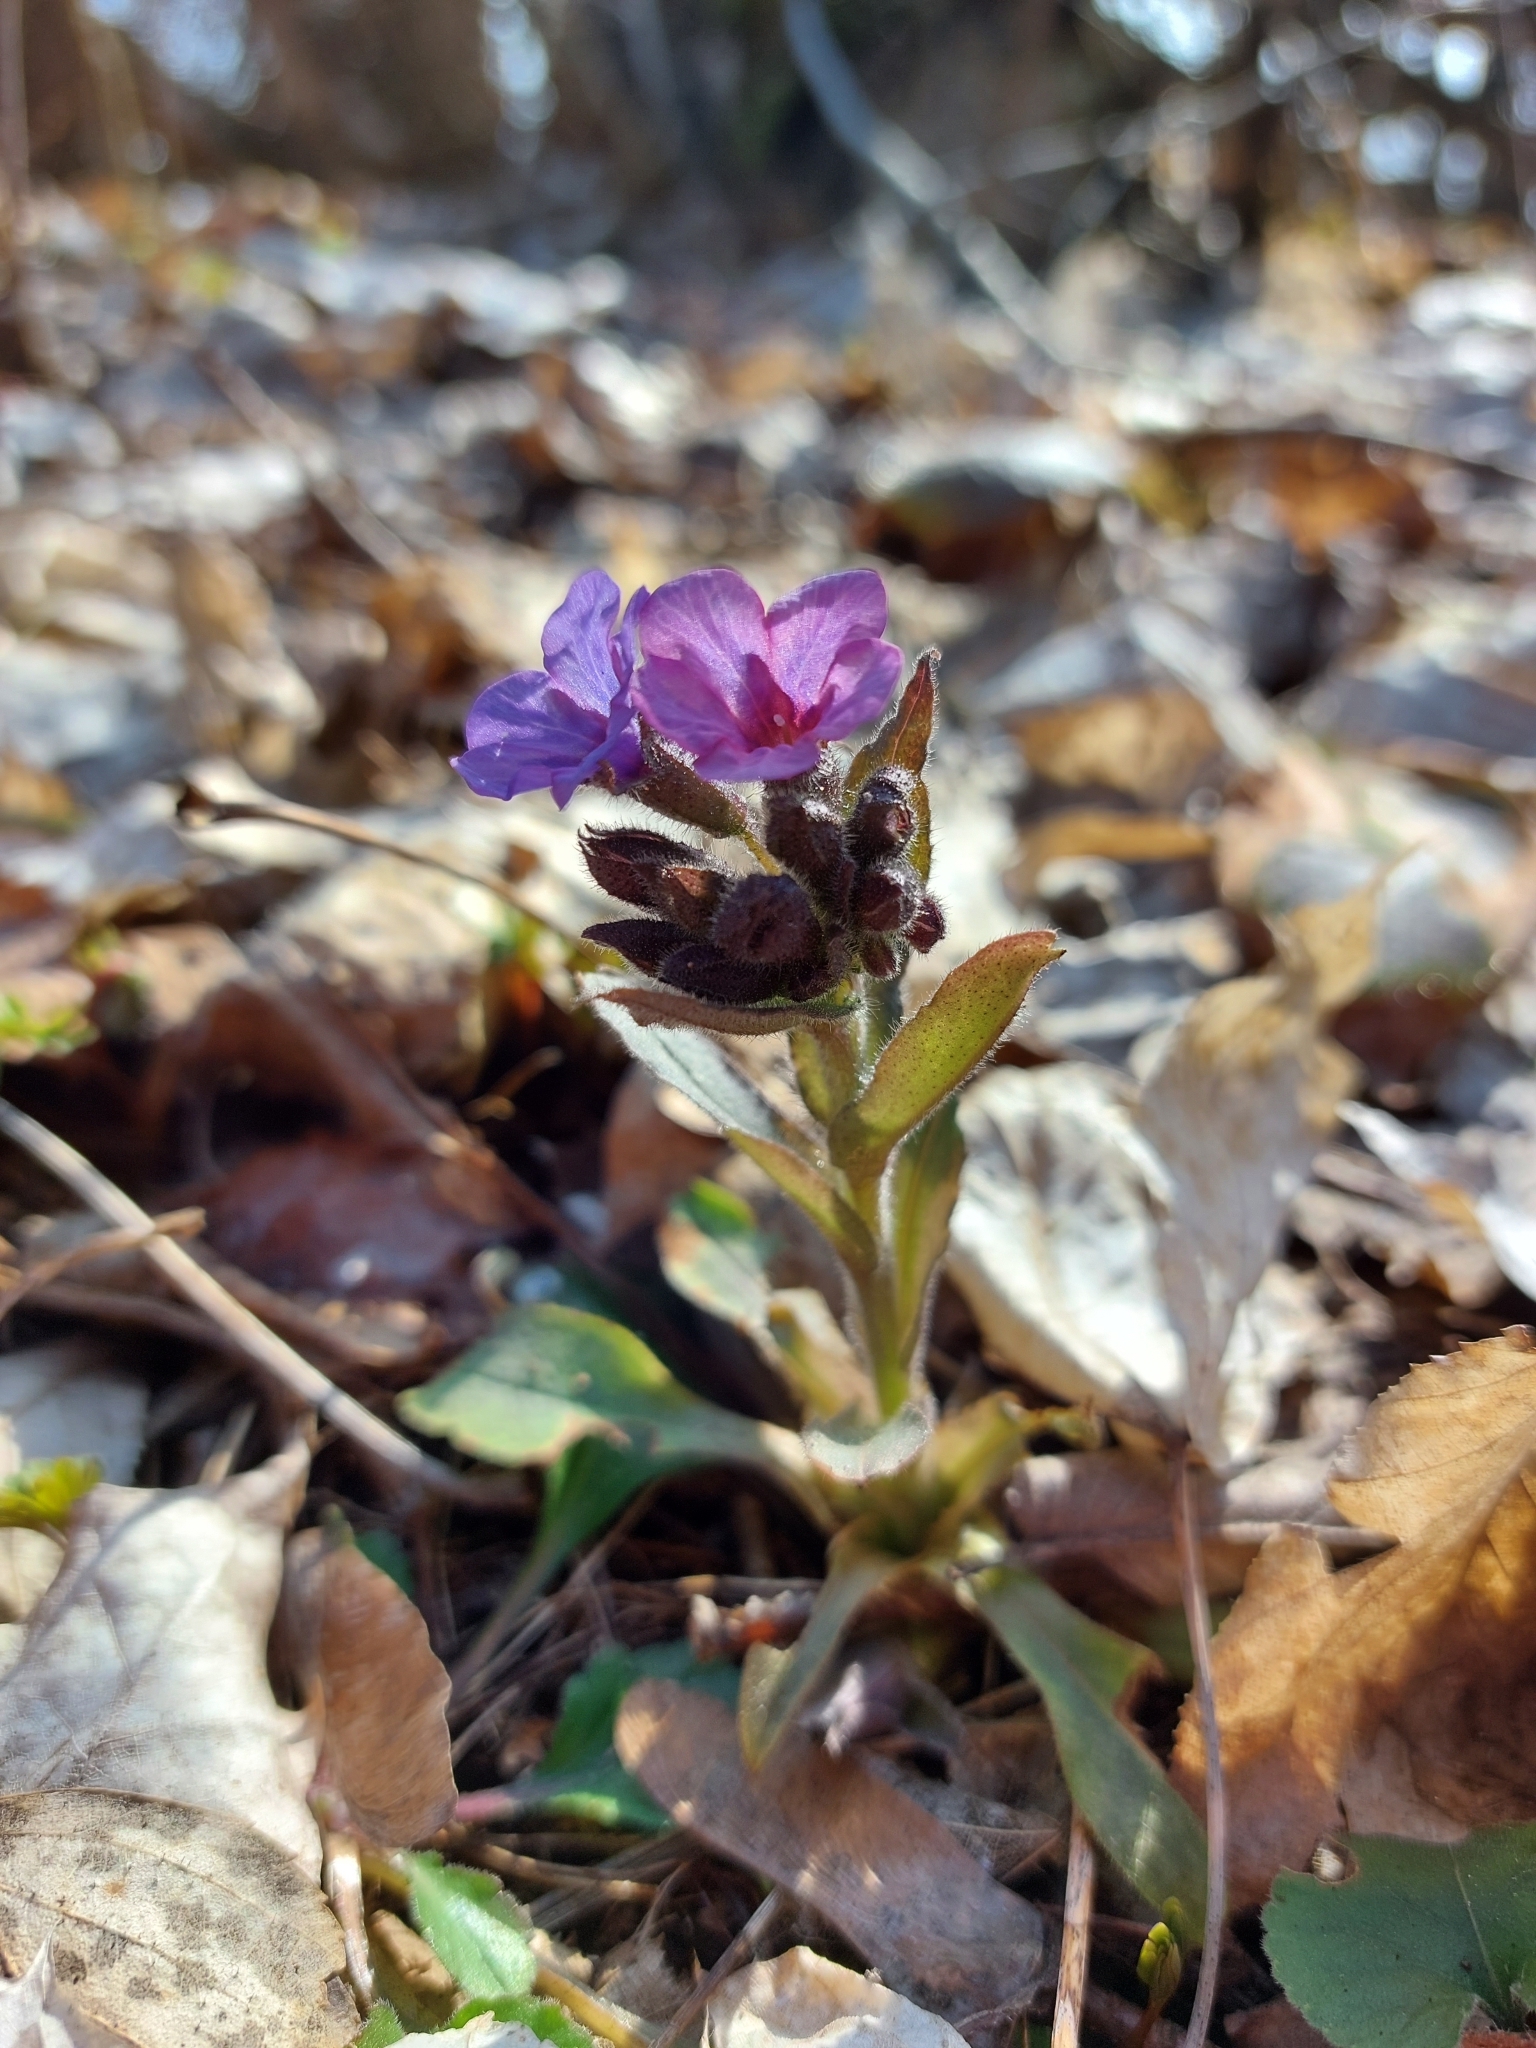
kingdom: Plantae
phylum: Tracheophyta
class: Magnoliopsida
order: Boraginales
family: Boraginaceae
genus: Pulmonaria
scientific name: Pulmonaria obscura
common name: Suffolk lungwort
